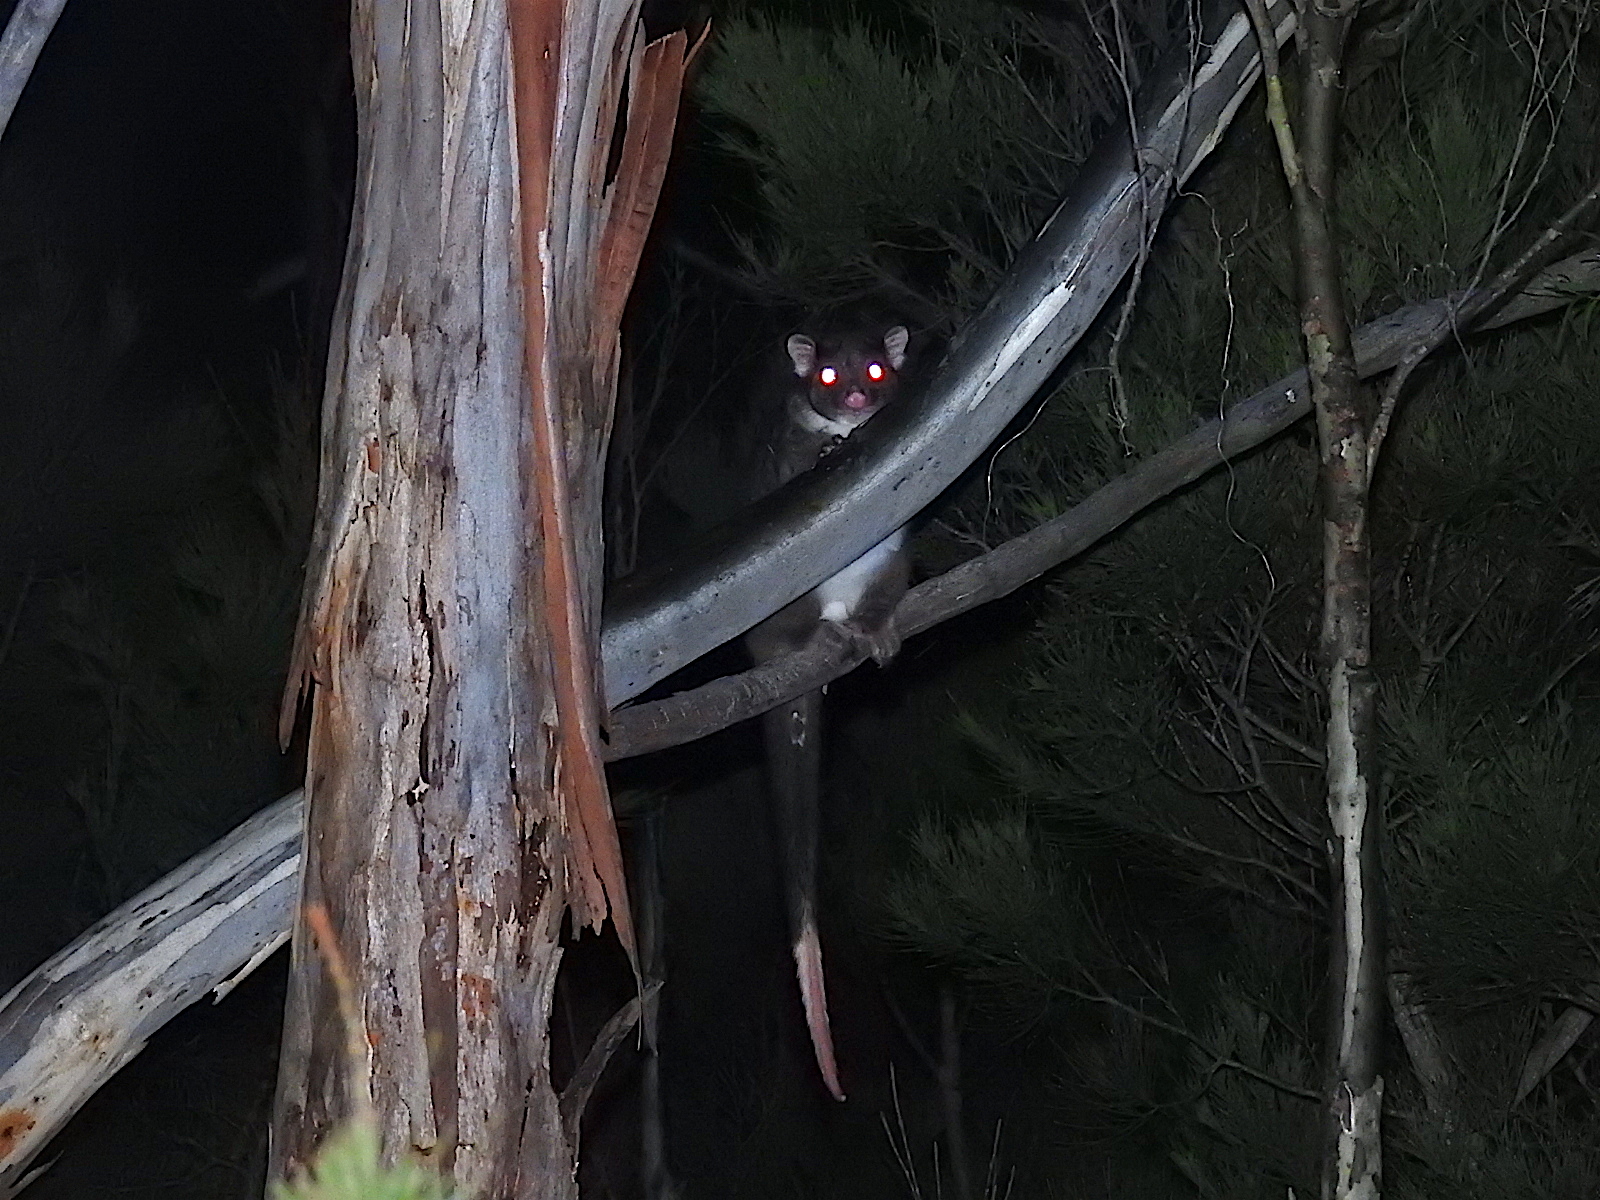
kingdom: Animalia
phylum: Chordata
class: Mammalia
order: Diprotodontia
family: Pseudocheiridae
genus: Pseudocheirus
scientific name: Pseudocheirus peregrinus
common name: Common ringtail possum
